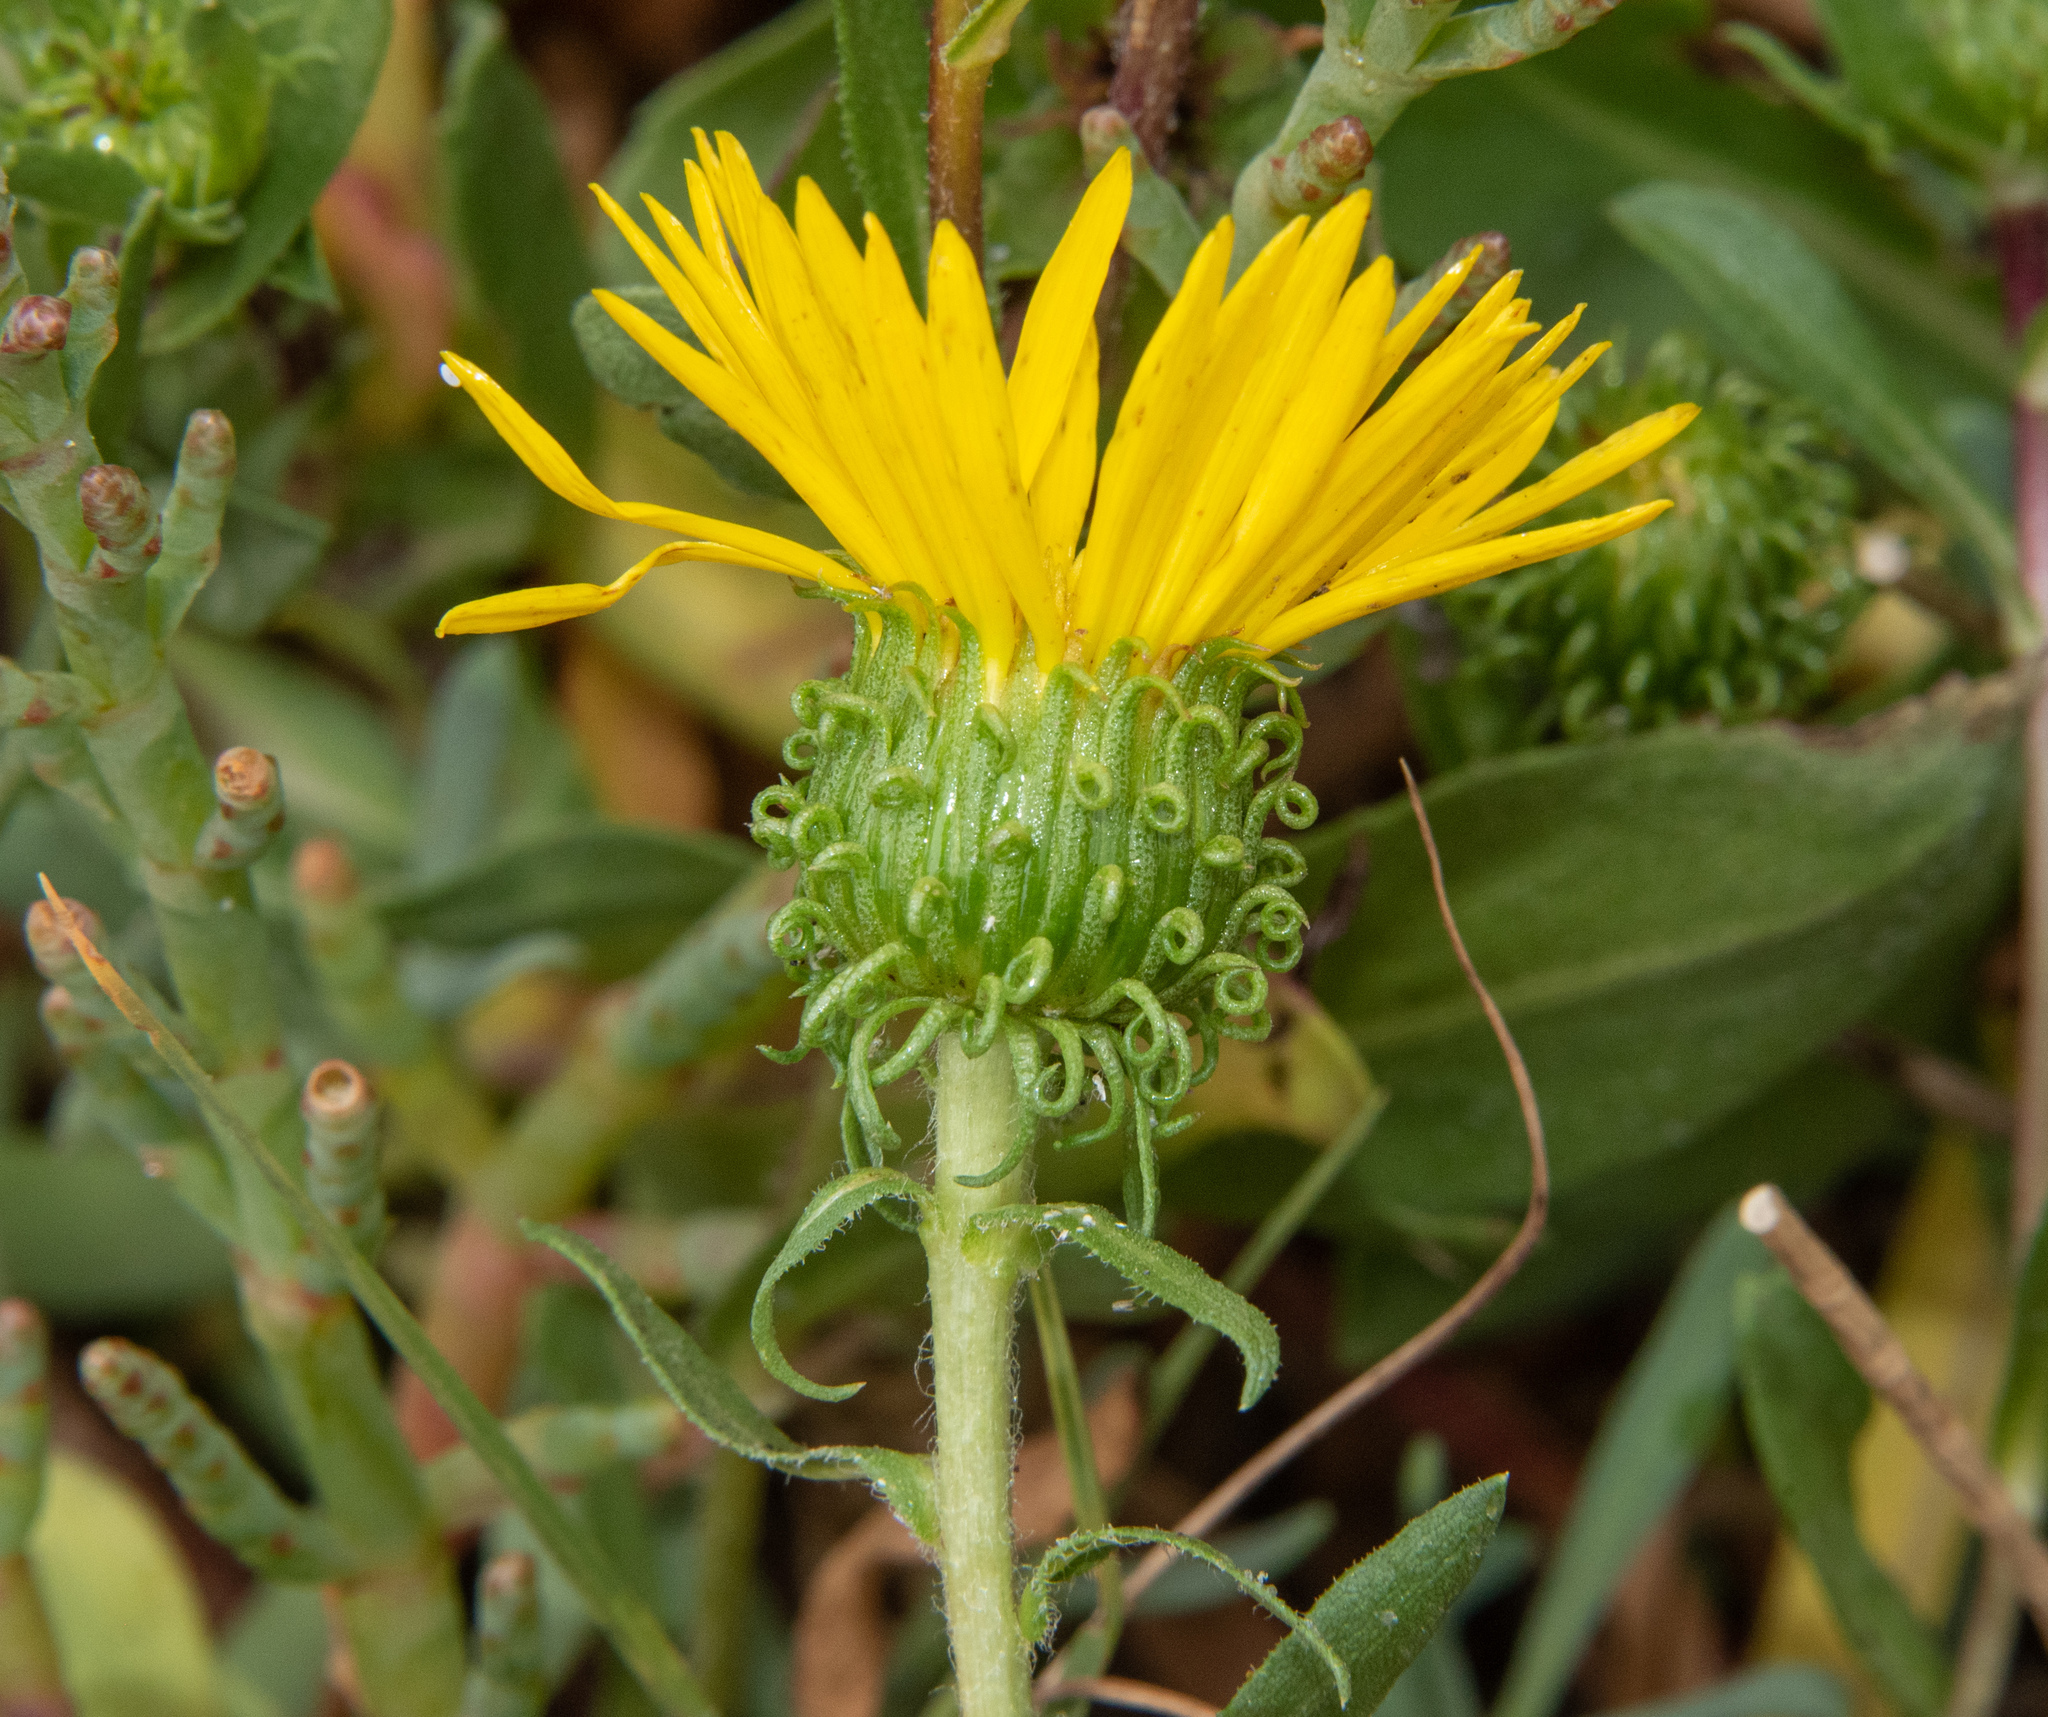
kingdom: Plantae
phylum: Tracheophyta
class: Magnoliopsida
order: Asterales
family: Asteraceae
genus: Grindelia
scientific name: Grindelia hirsutula
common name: Hairy gumweed
